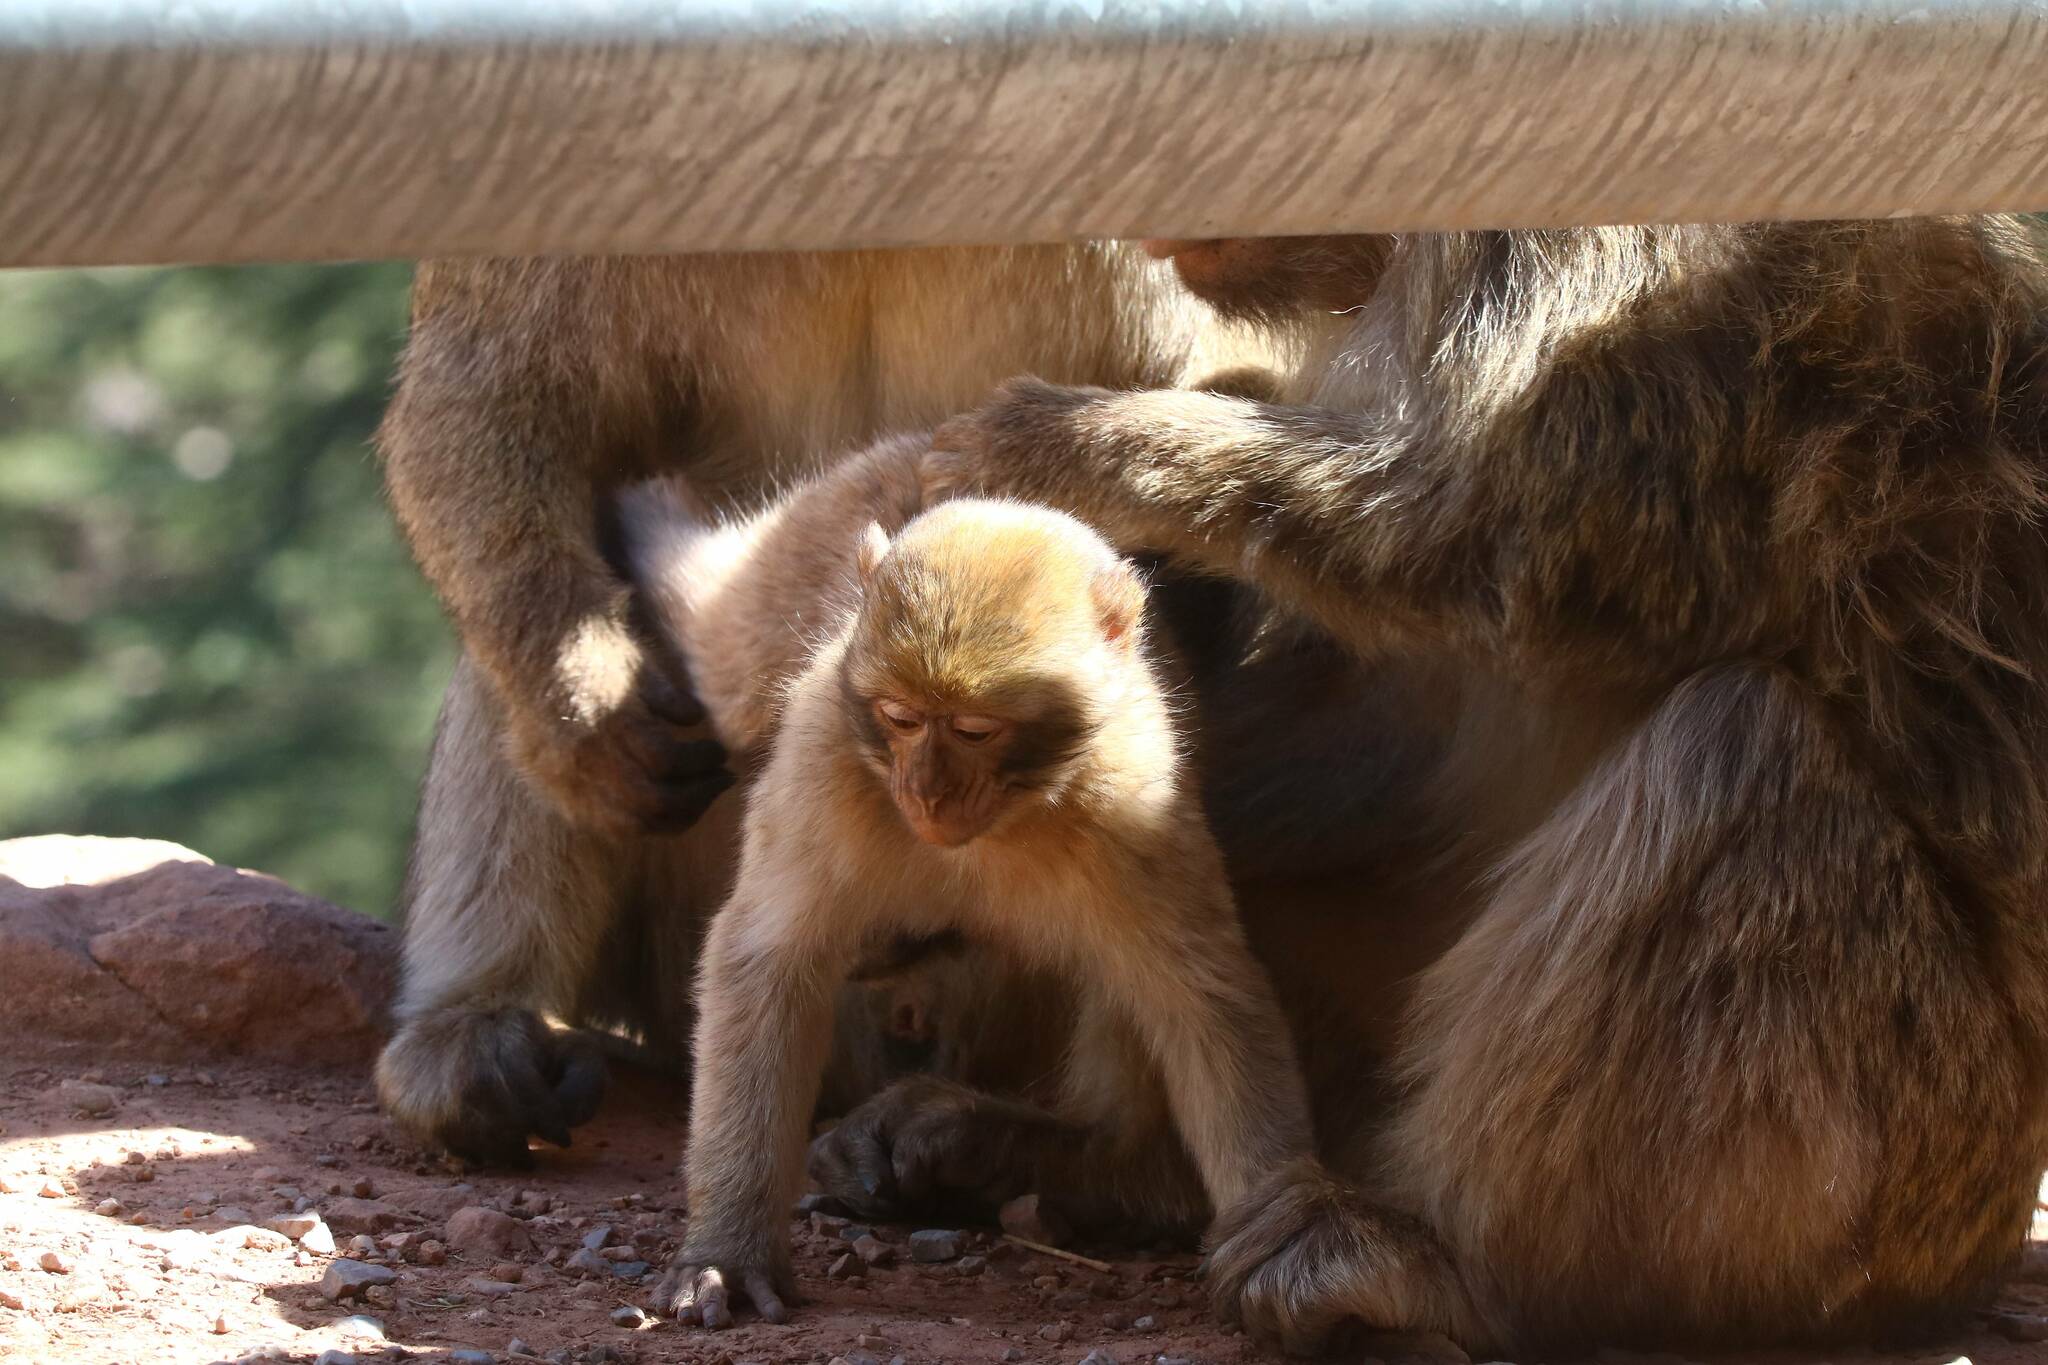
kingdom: Animalia
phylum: Chordata
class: Mammalia
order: Primates
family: Cercopithecidae
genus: Macaca
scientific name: Macaca sylvanus
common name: Barbary macaque
